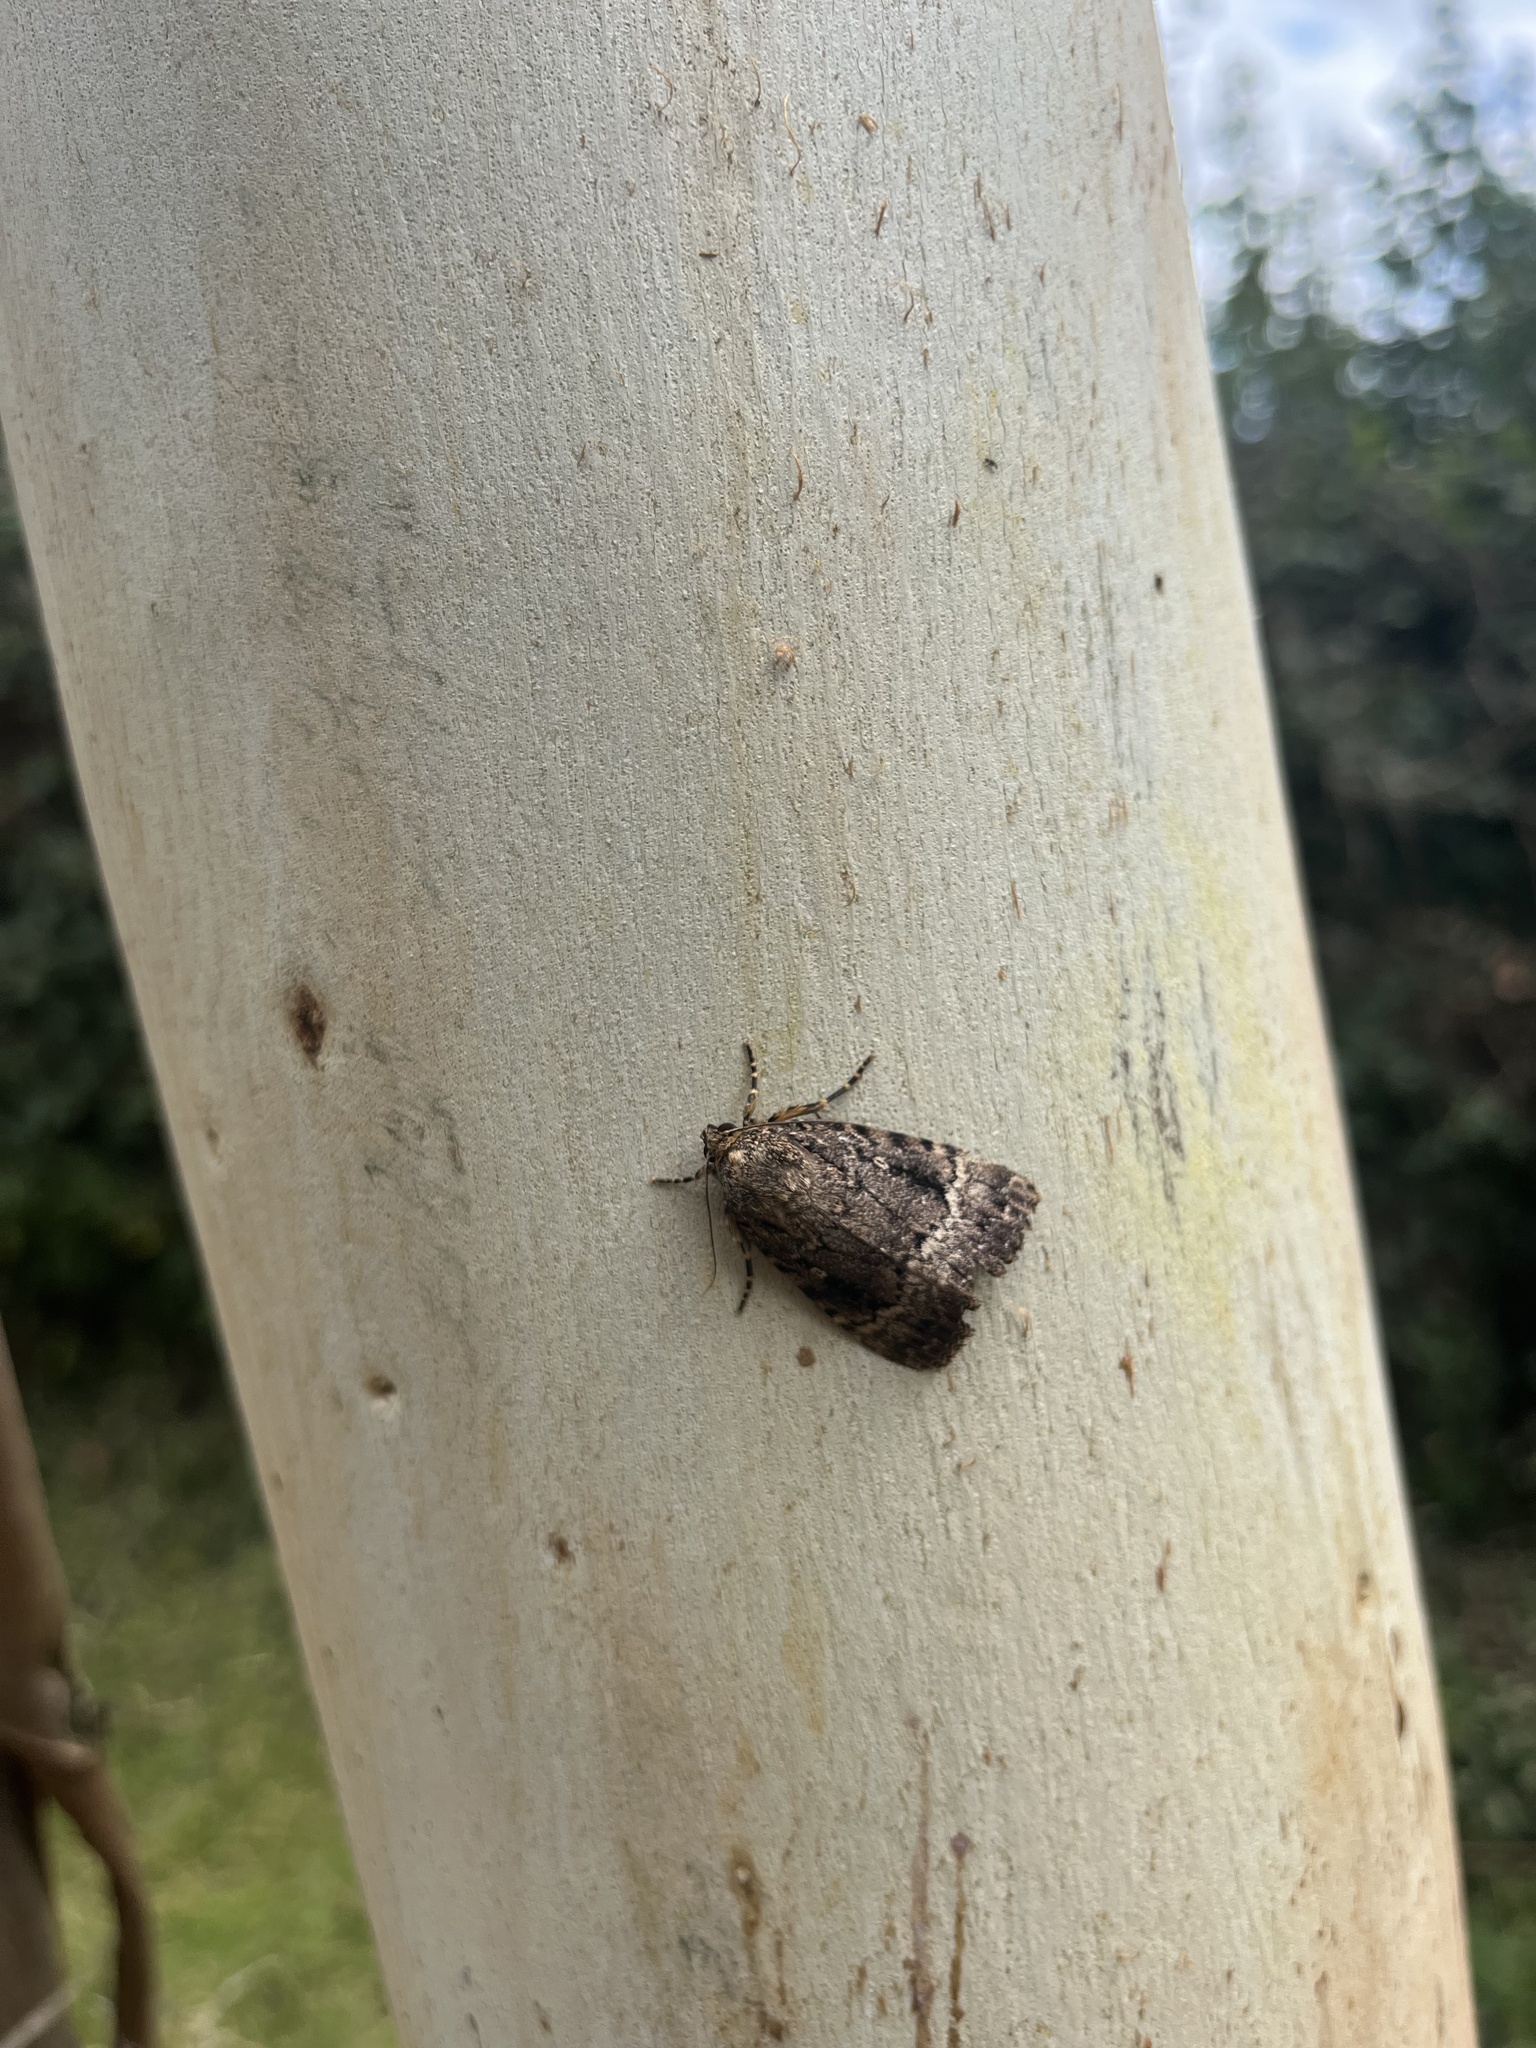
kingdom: Animalia
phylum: Arthropoda
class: Insecta
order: Lepidoptera
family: Noctuidae
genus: Amphipyra
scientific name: Amphipyra
